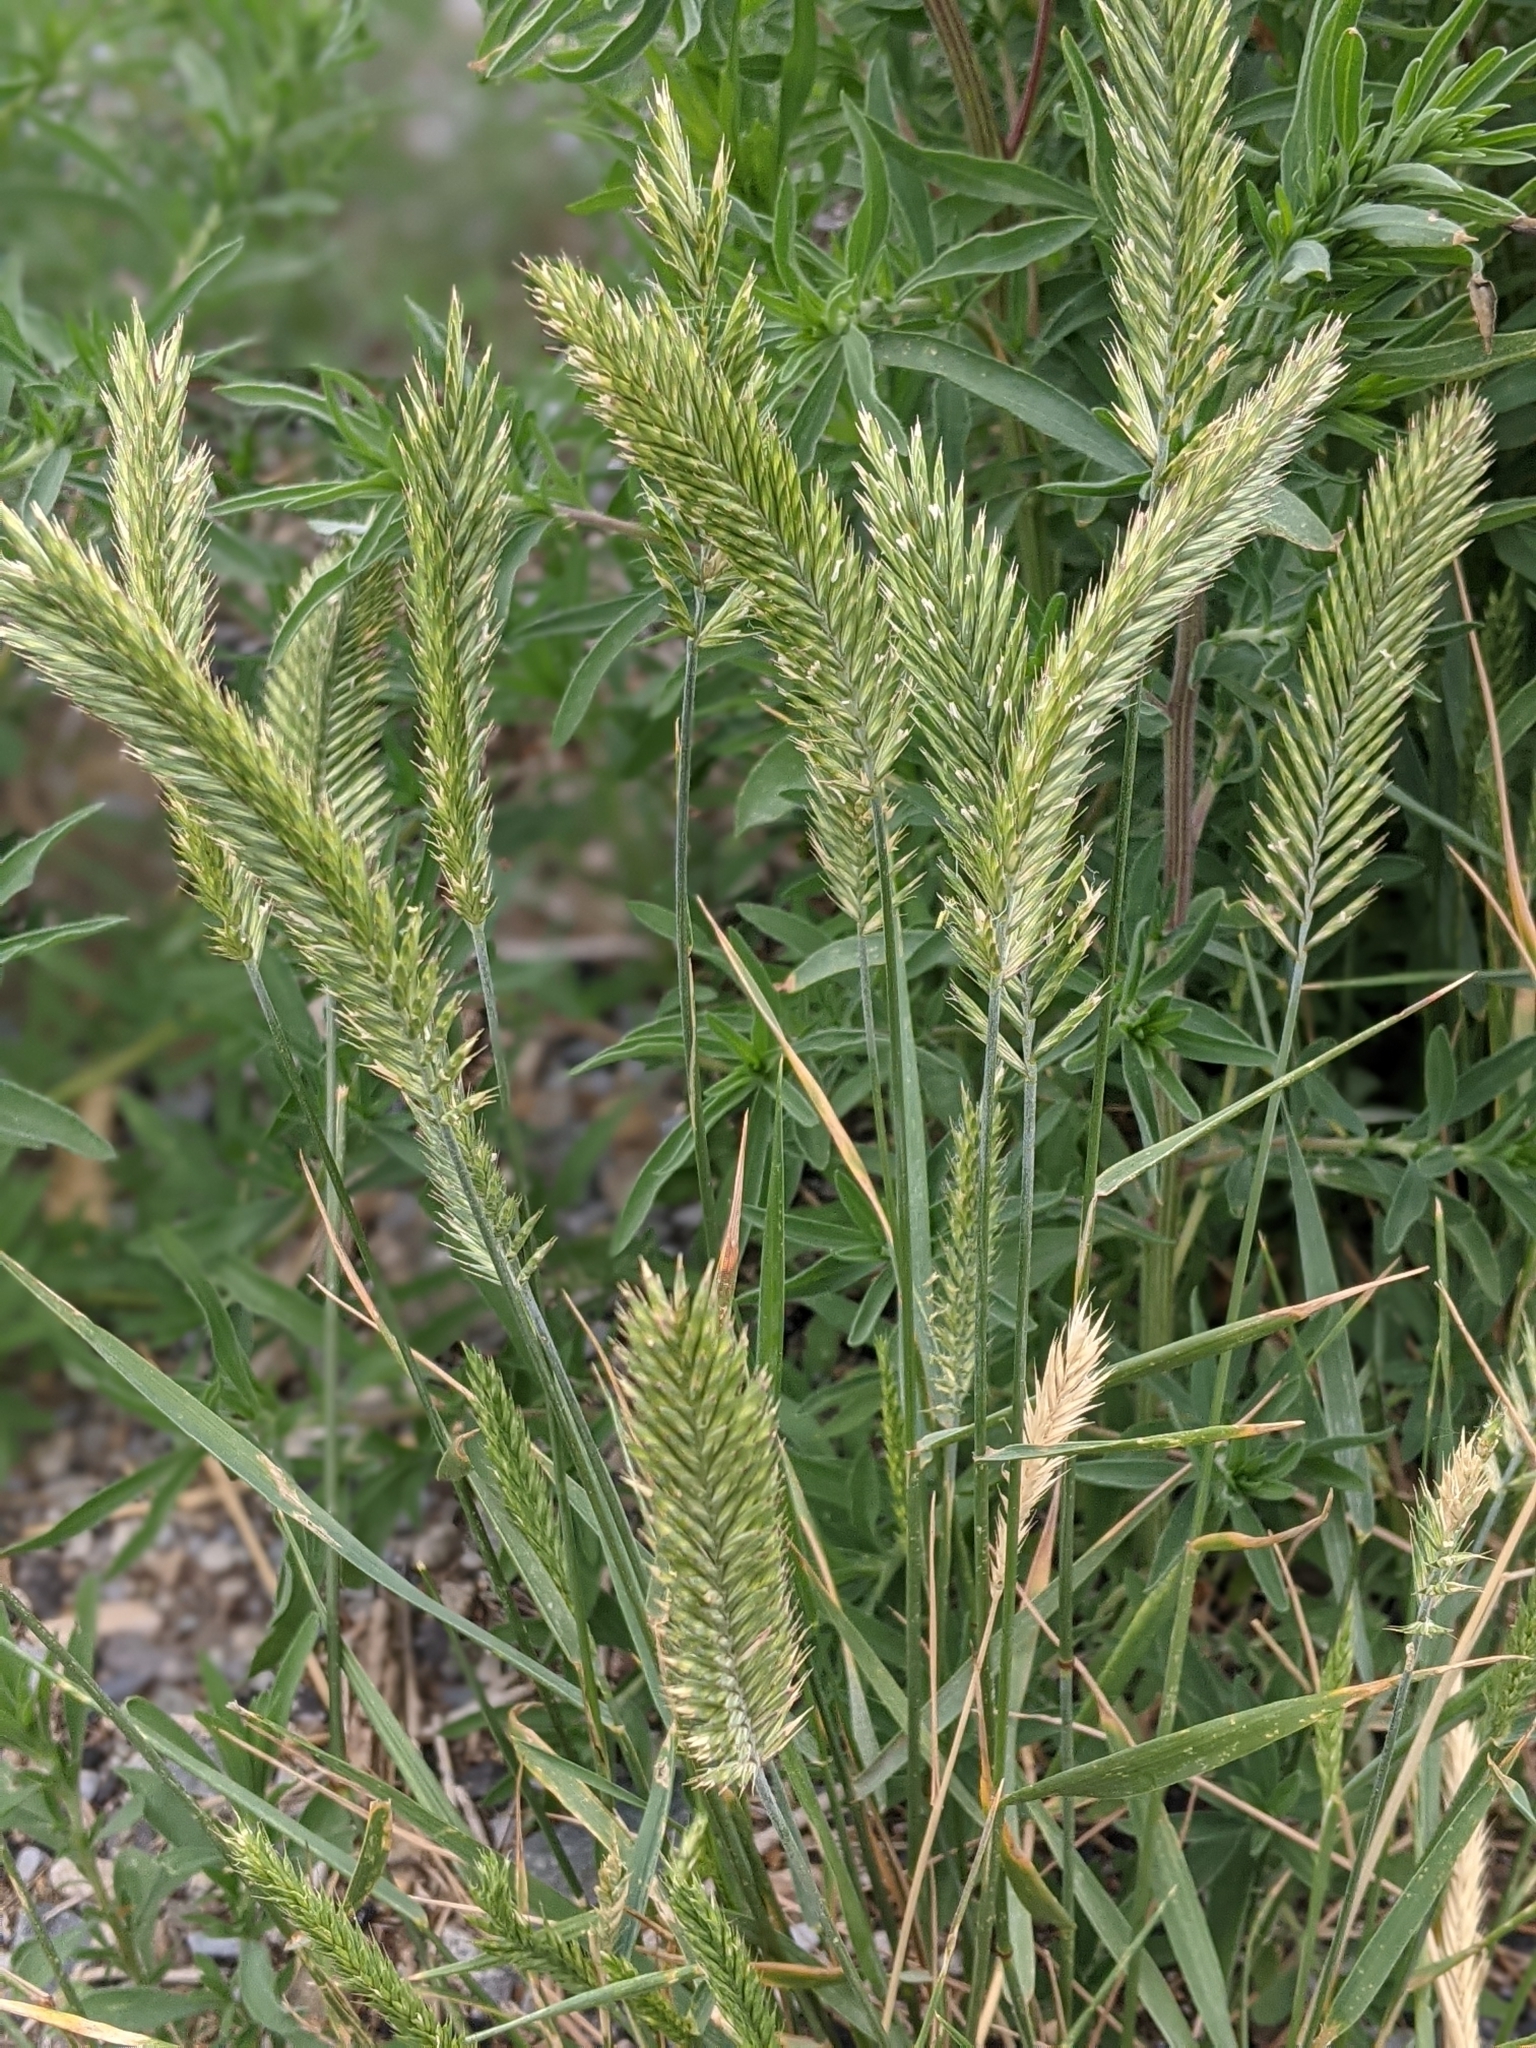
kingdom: Plantae
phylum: Tracheophyta
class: Liliopsida
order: Poales
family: Poaceae
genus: Agropyron
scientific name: Agropyron cristatum
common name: Crested wheatgrass
